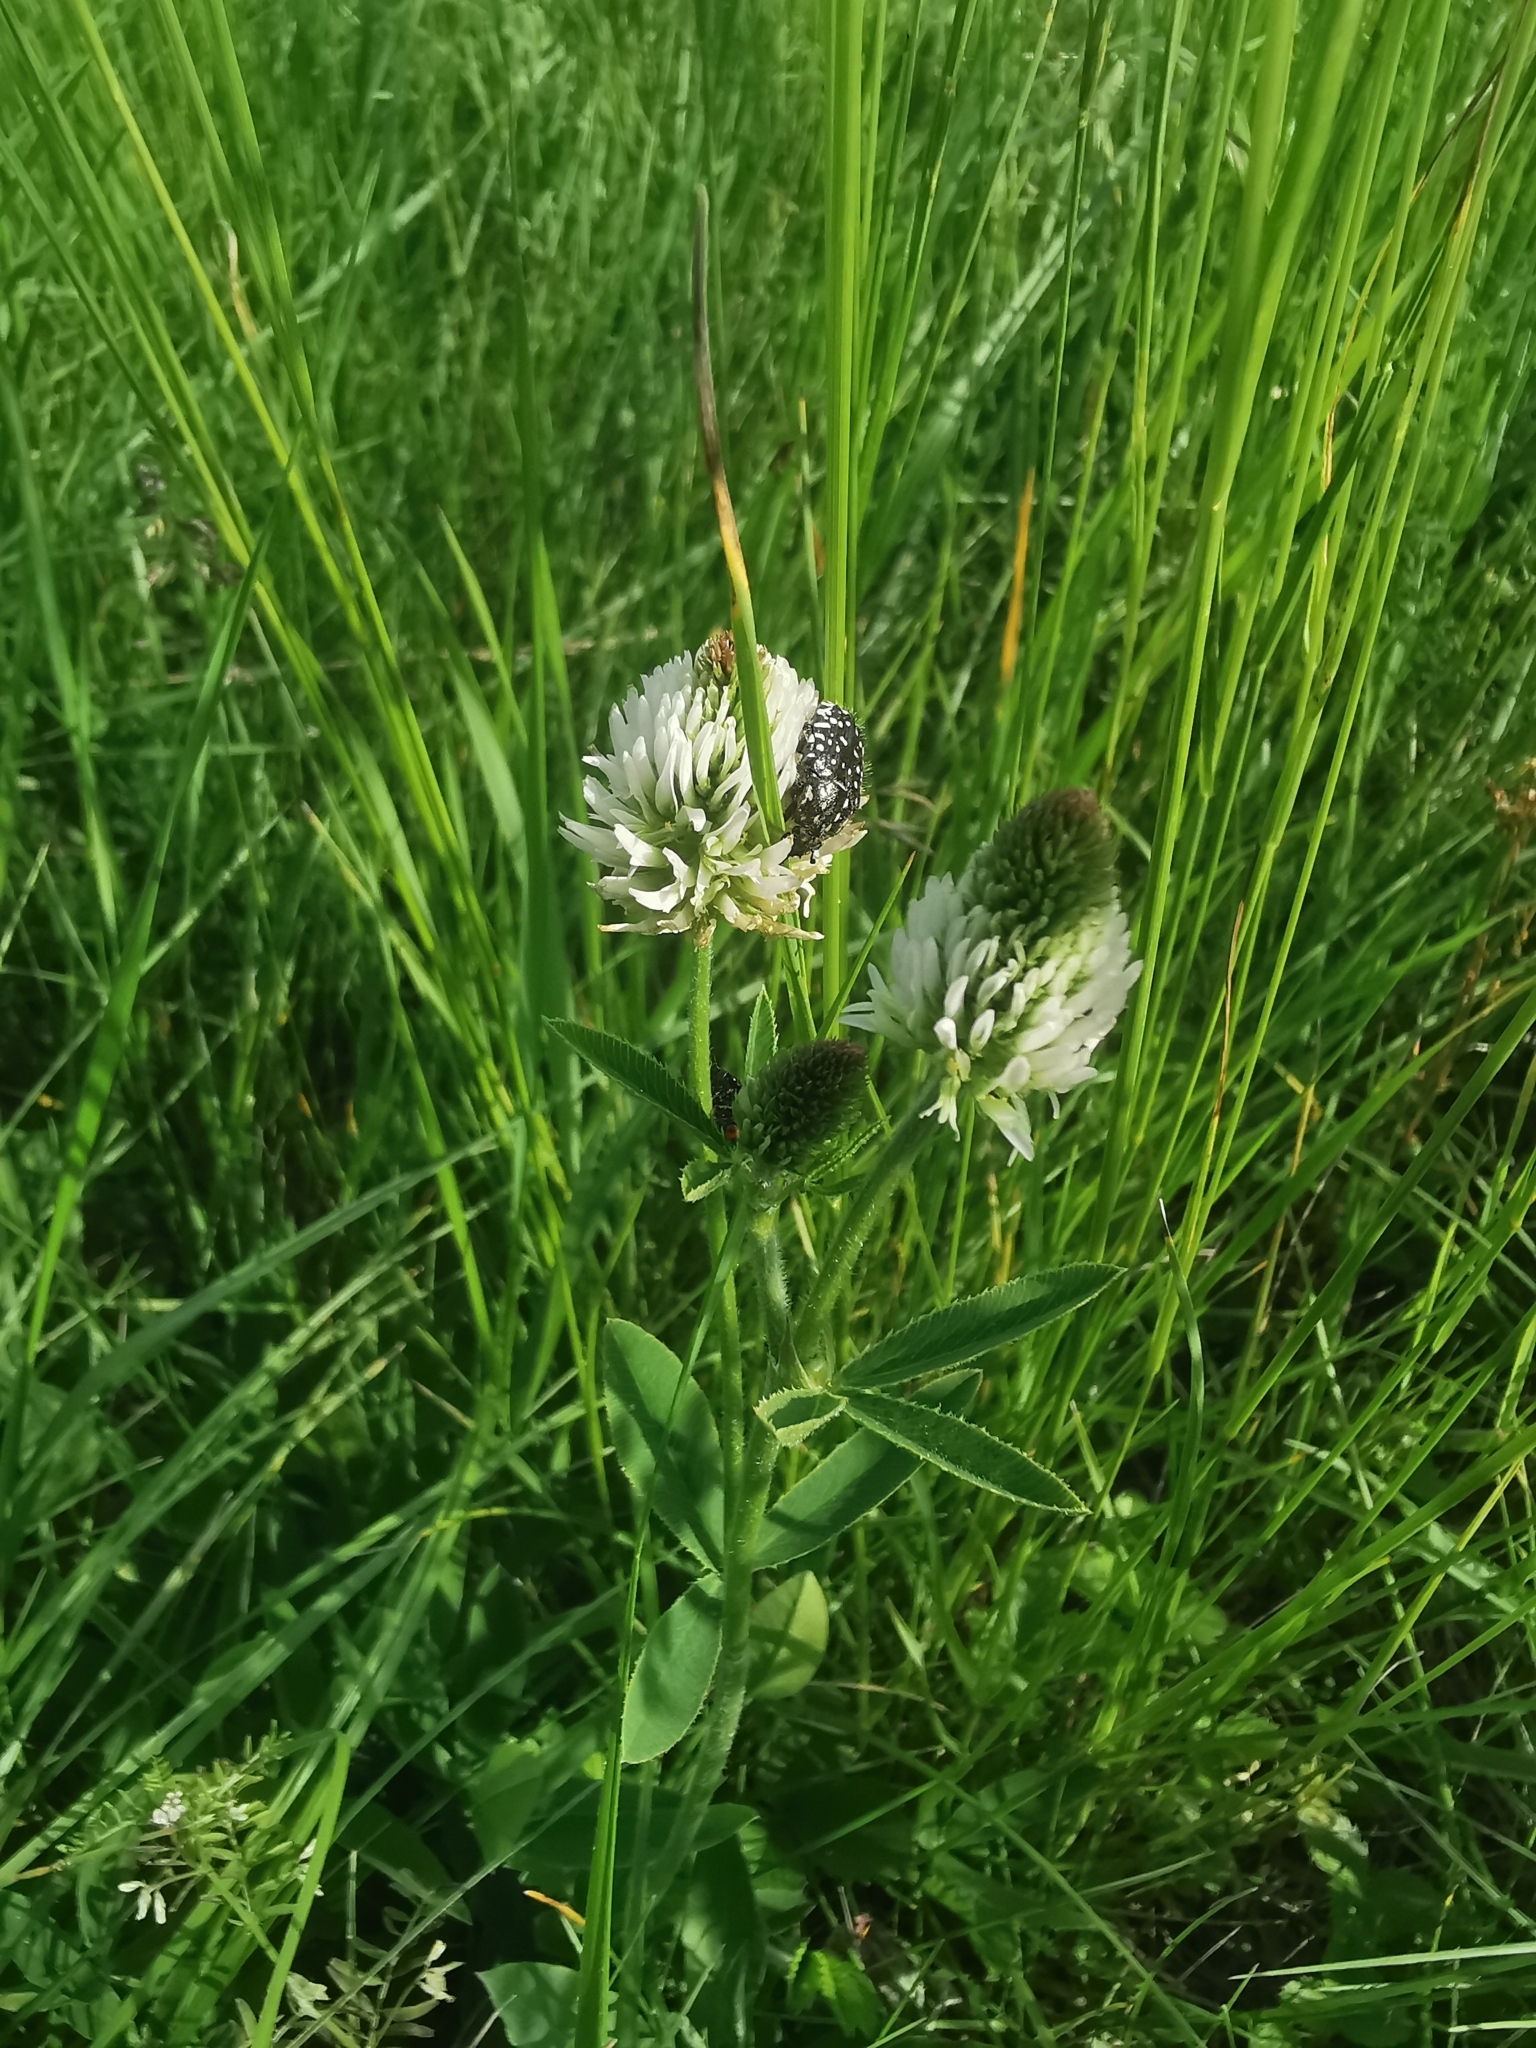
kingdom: Plantae
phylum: Tracheophyta
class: Magnoliopsida
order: Fabales
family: Fabaceae
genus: Trifolium
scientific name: Trifolium montanum
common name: Mountain clover
